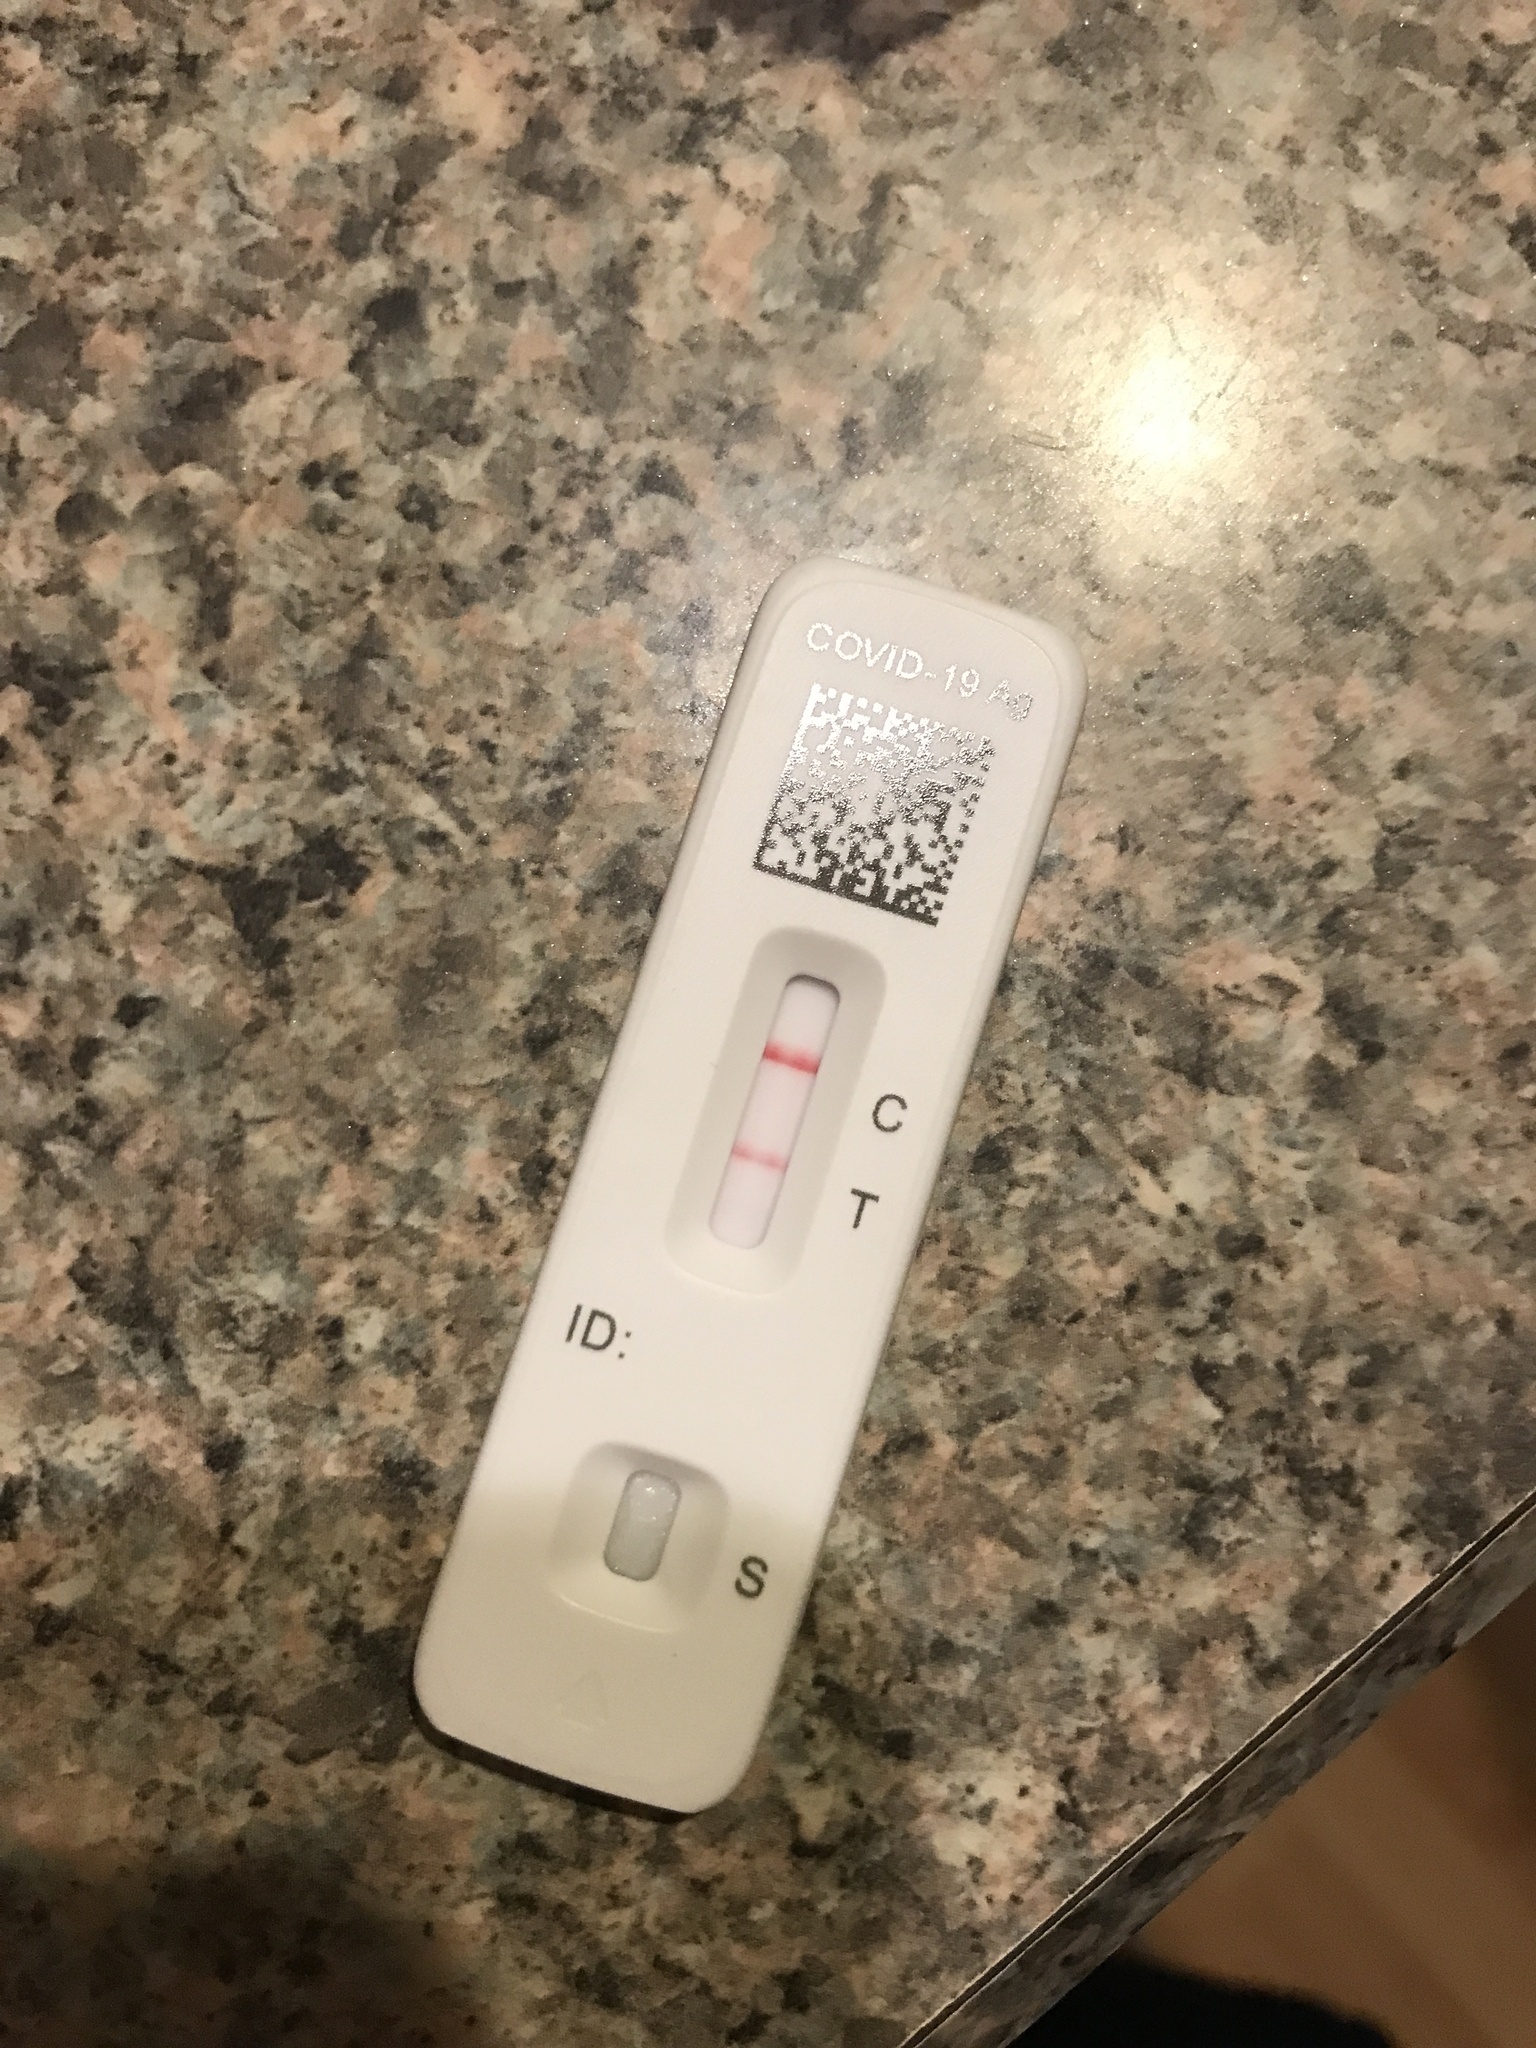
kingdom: Viruses
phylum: Pisuviricota
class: Pisoniviricetes
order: Nidovirales
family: Coronaviridae
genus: Betacoronavirus
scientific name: Betacoronavirus
